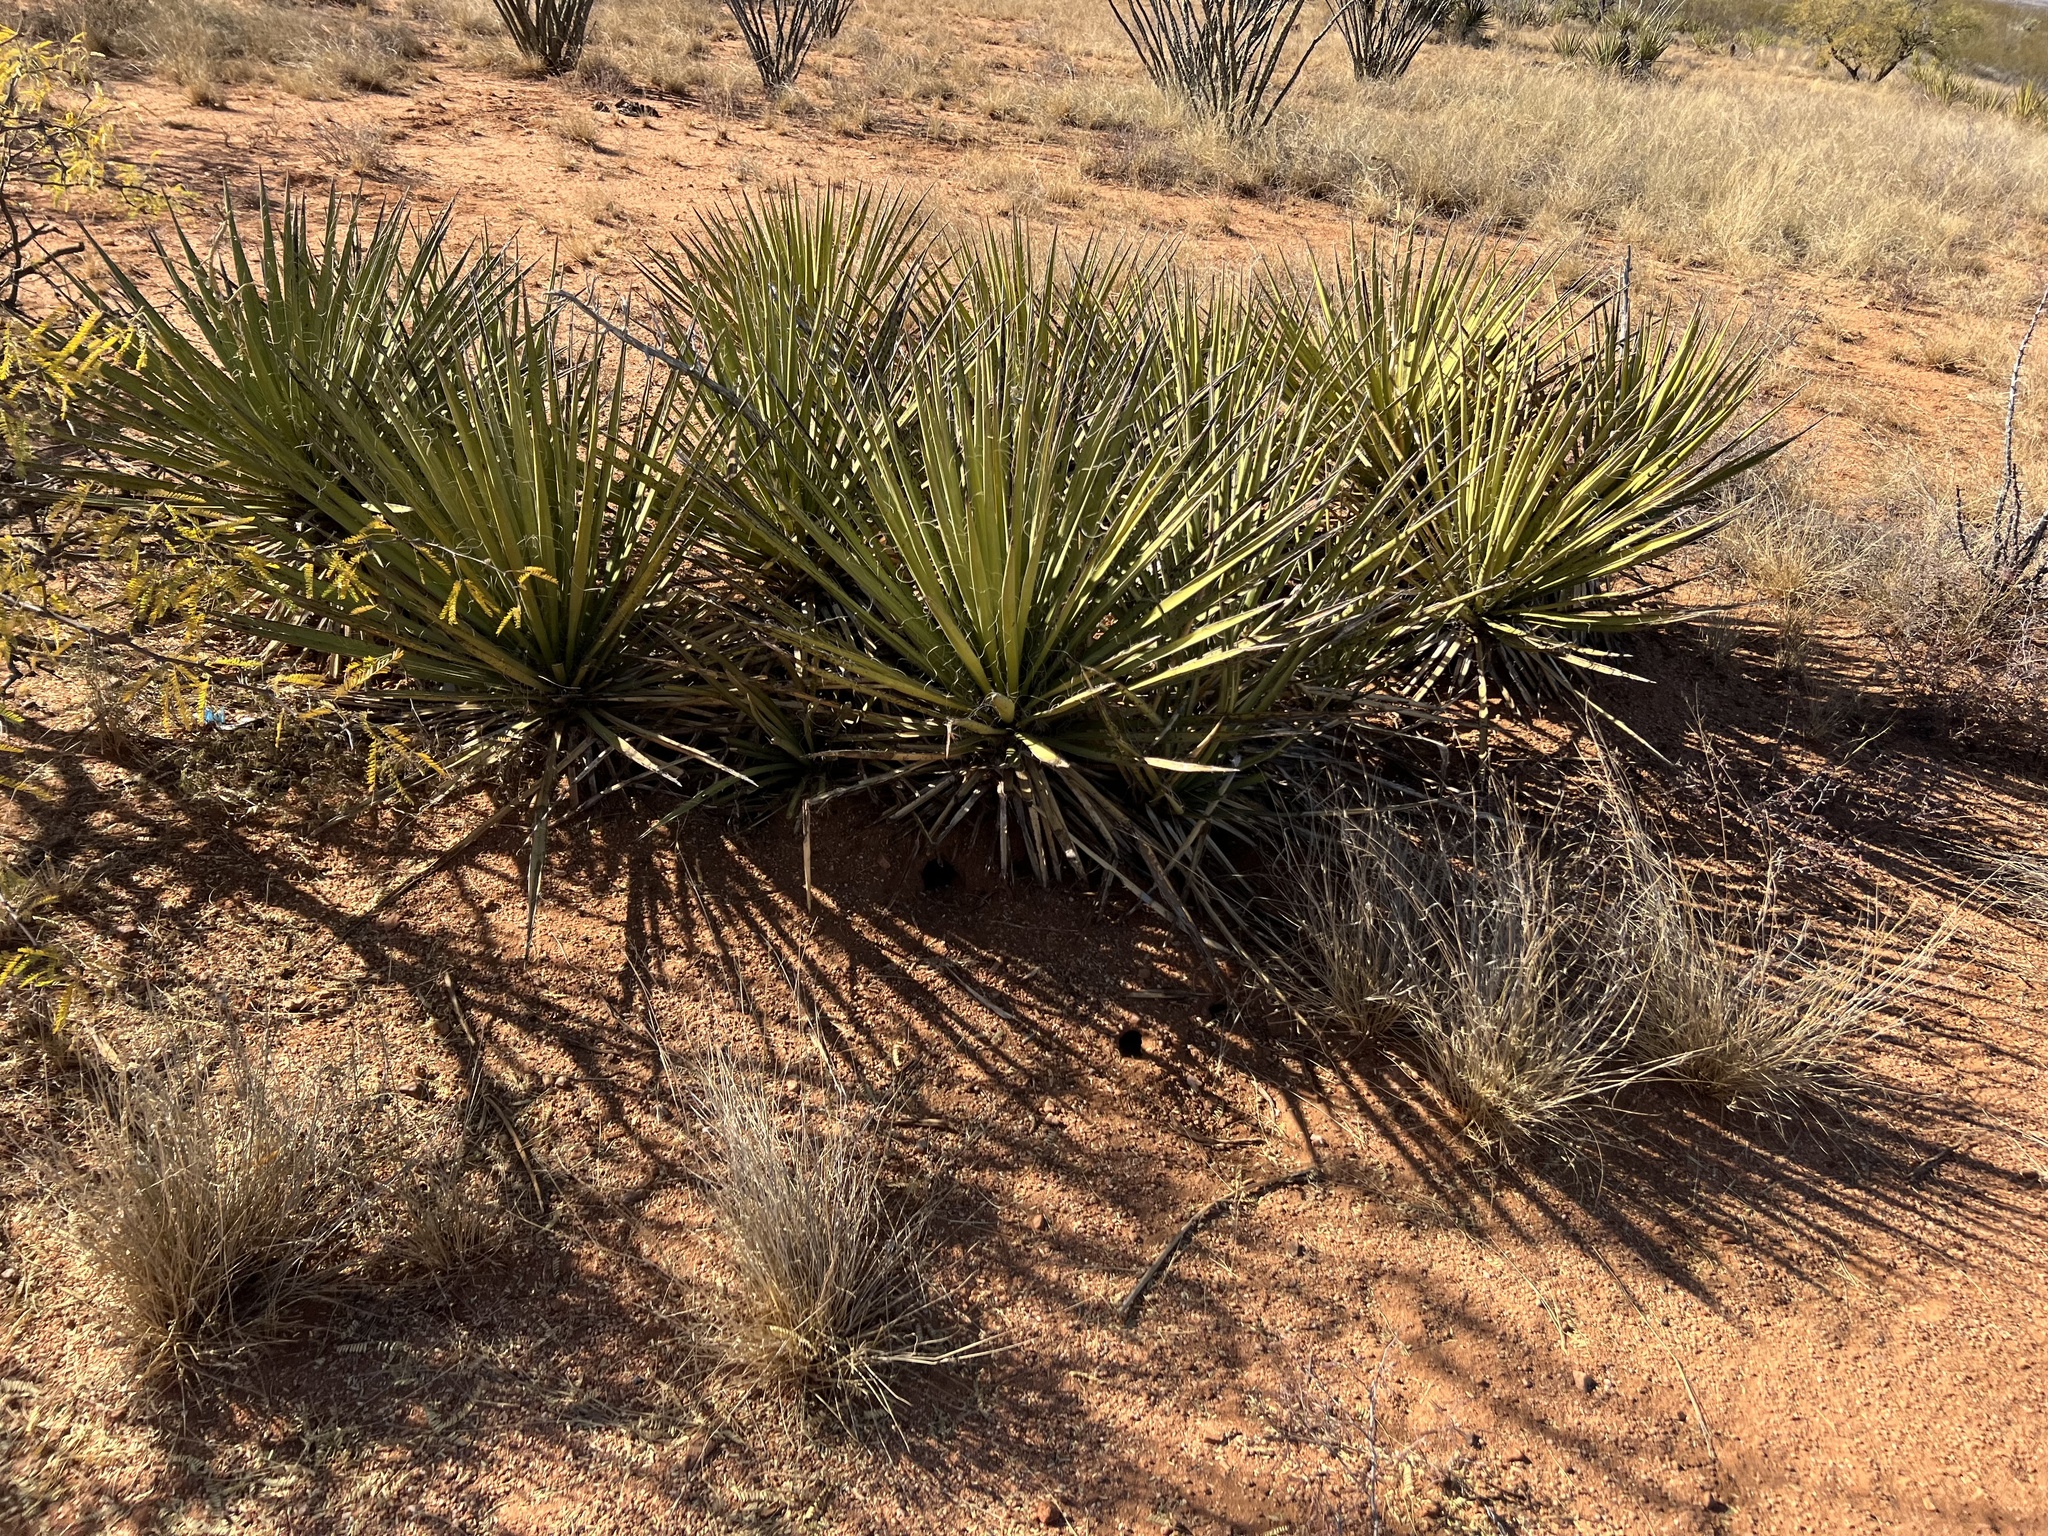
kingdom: Plantae
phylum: Tracheophyta
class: Liliopsida
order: Asparagales
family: Asparagaceae
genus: Yucca
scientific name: Yucca baccata
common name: Banana yucca
